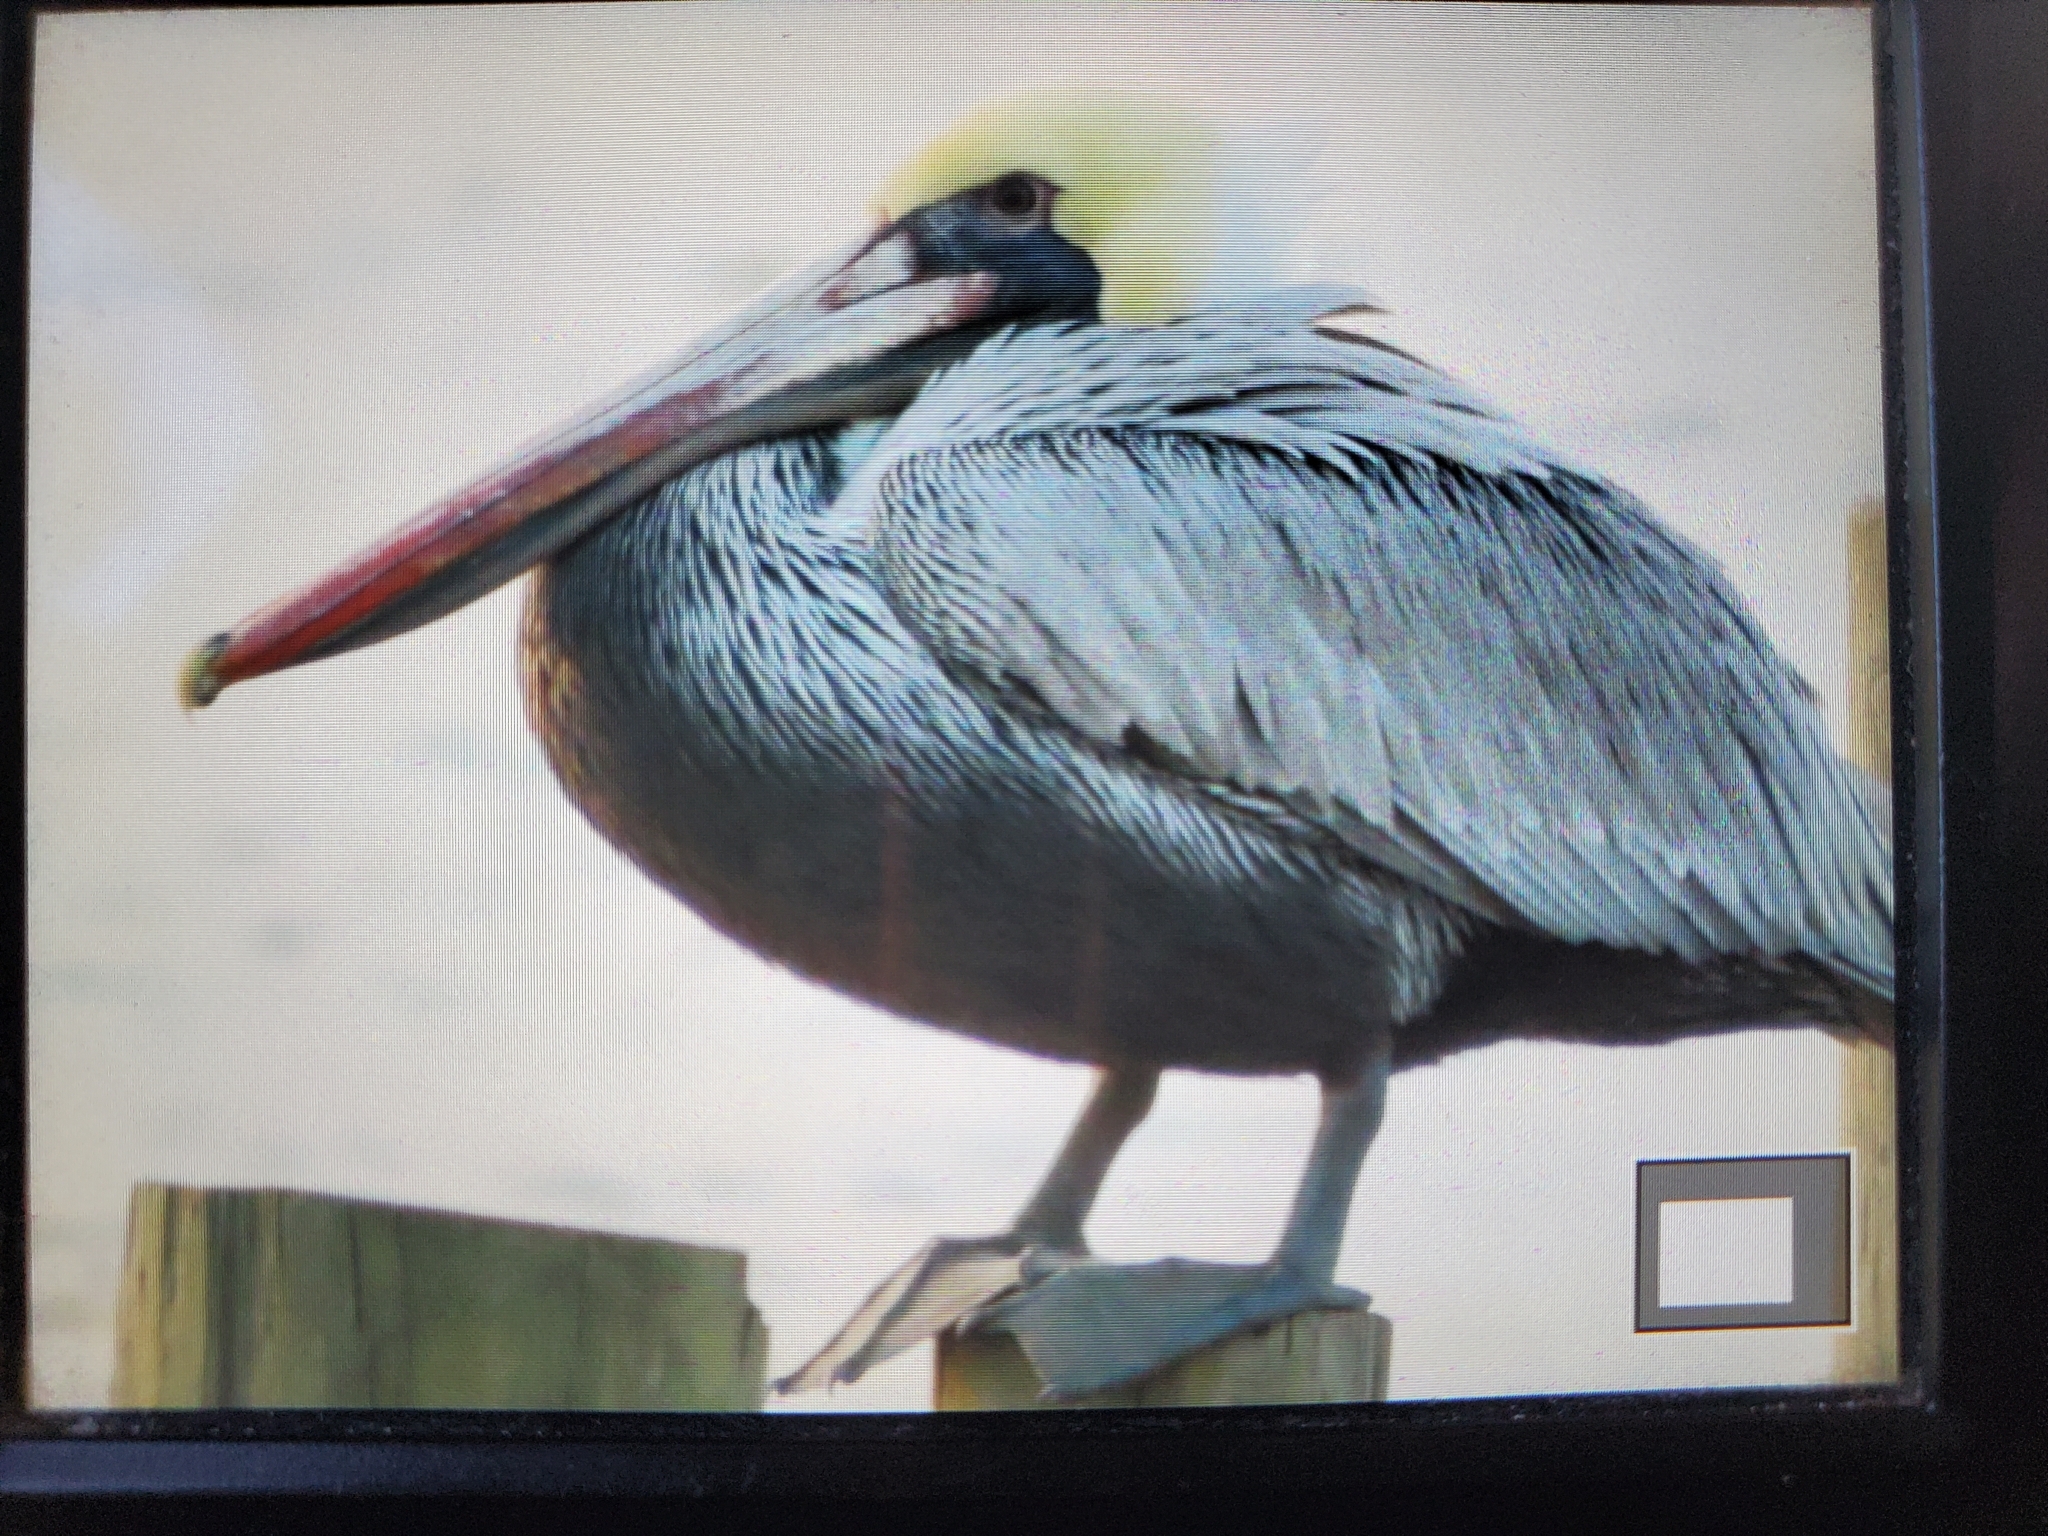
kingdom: Animalia
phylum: Chordata
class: Aves
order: Pelecaniformes
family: Pelecanidae
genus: Pelecanus
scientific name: Pelecanus occidentalis
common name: Brown pelican
